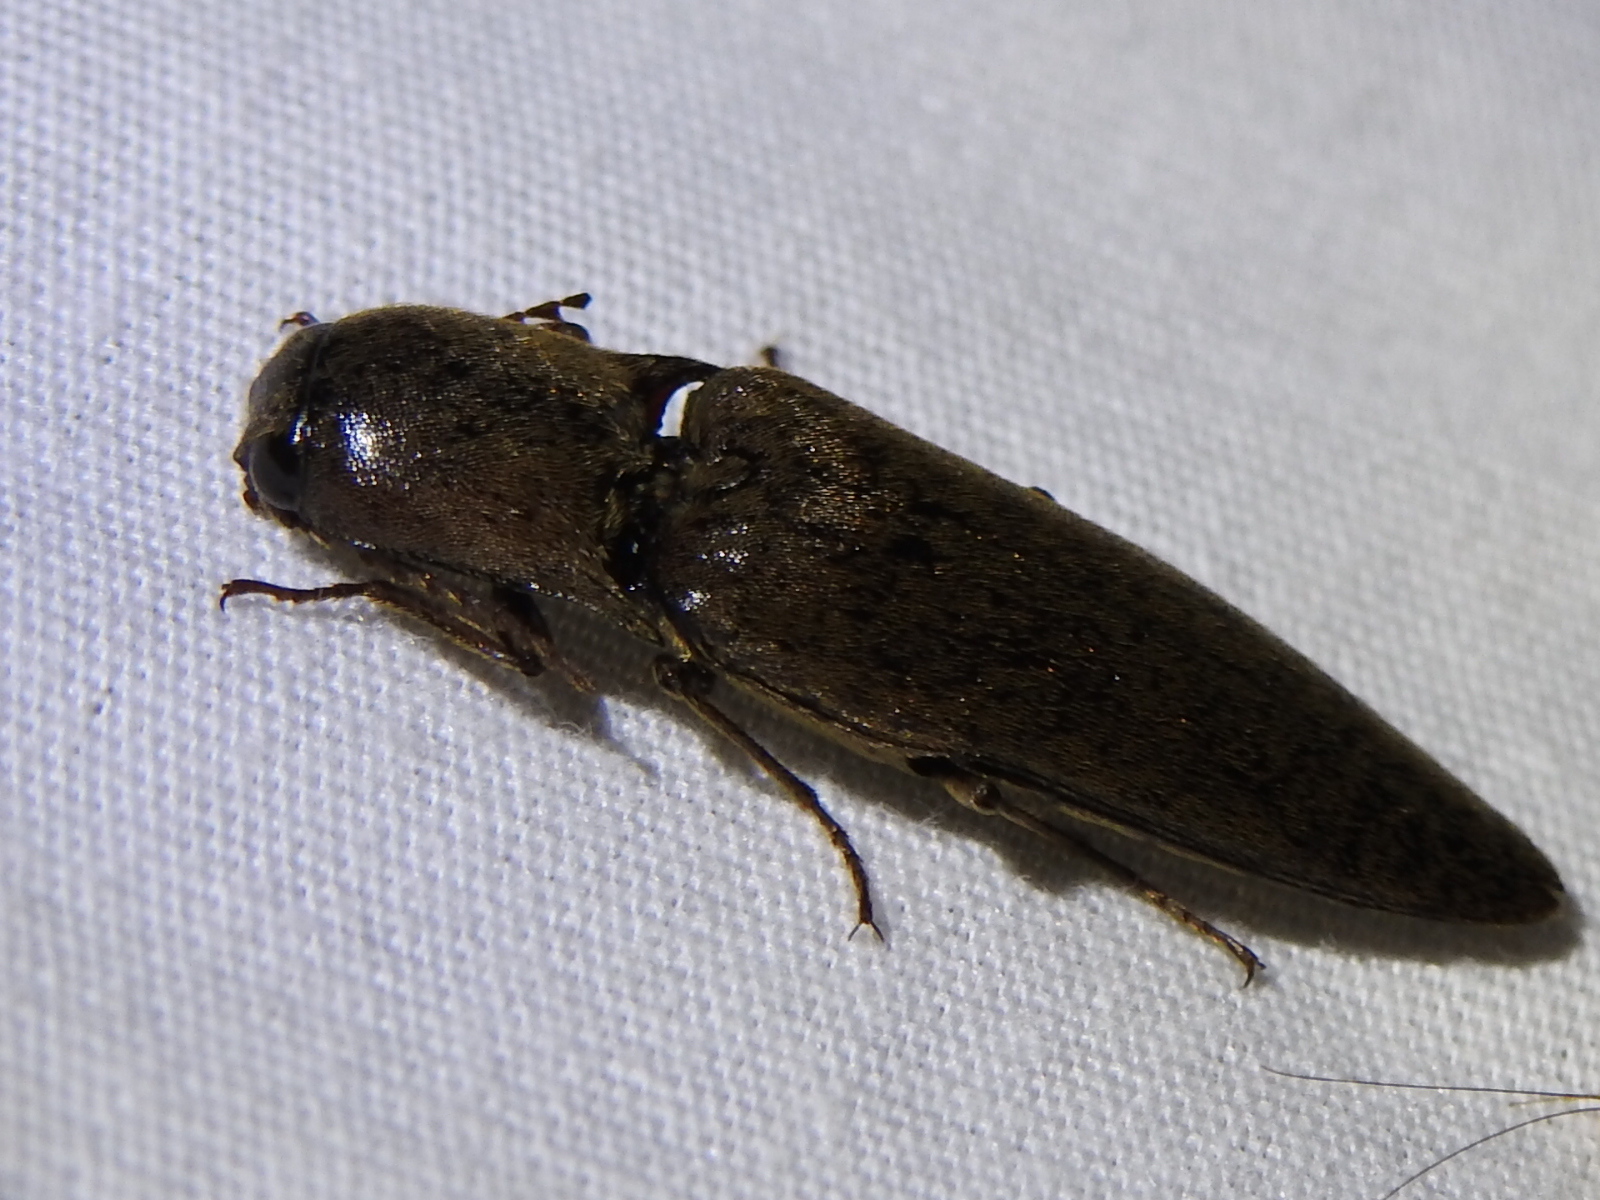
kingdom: Animalia
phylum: Arthropoda
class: Insecta
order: Coleoptera
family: Elateridae
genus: Orthostethus
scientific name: Orthostethus infuscatus
